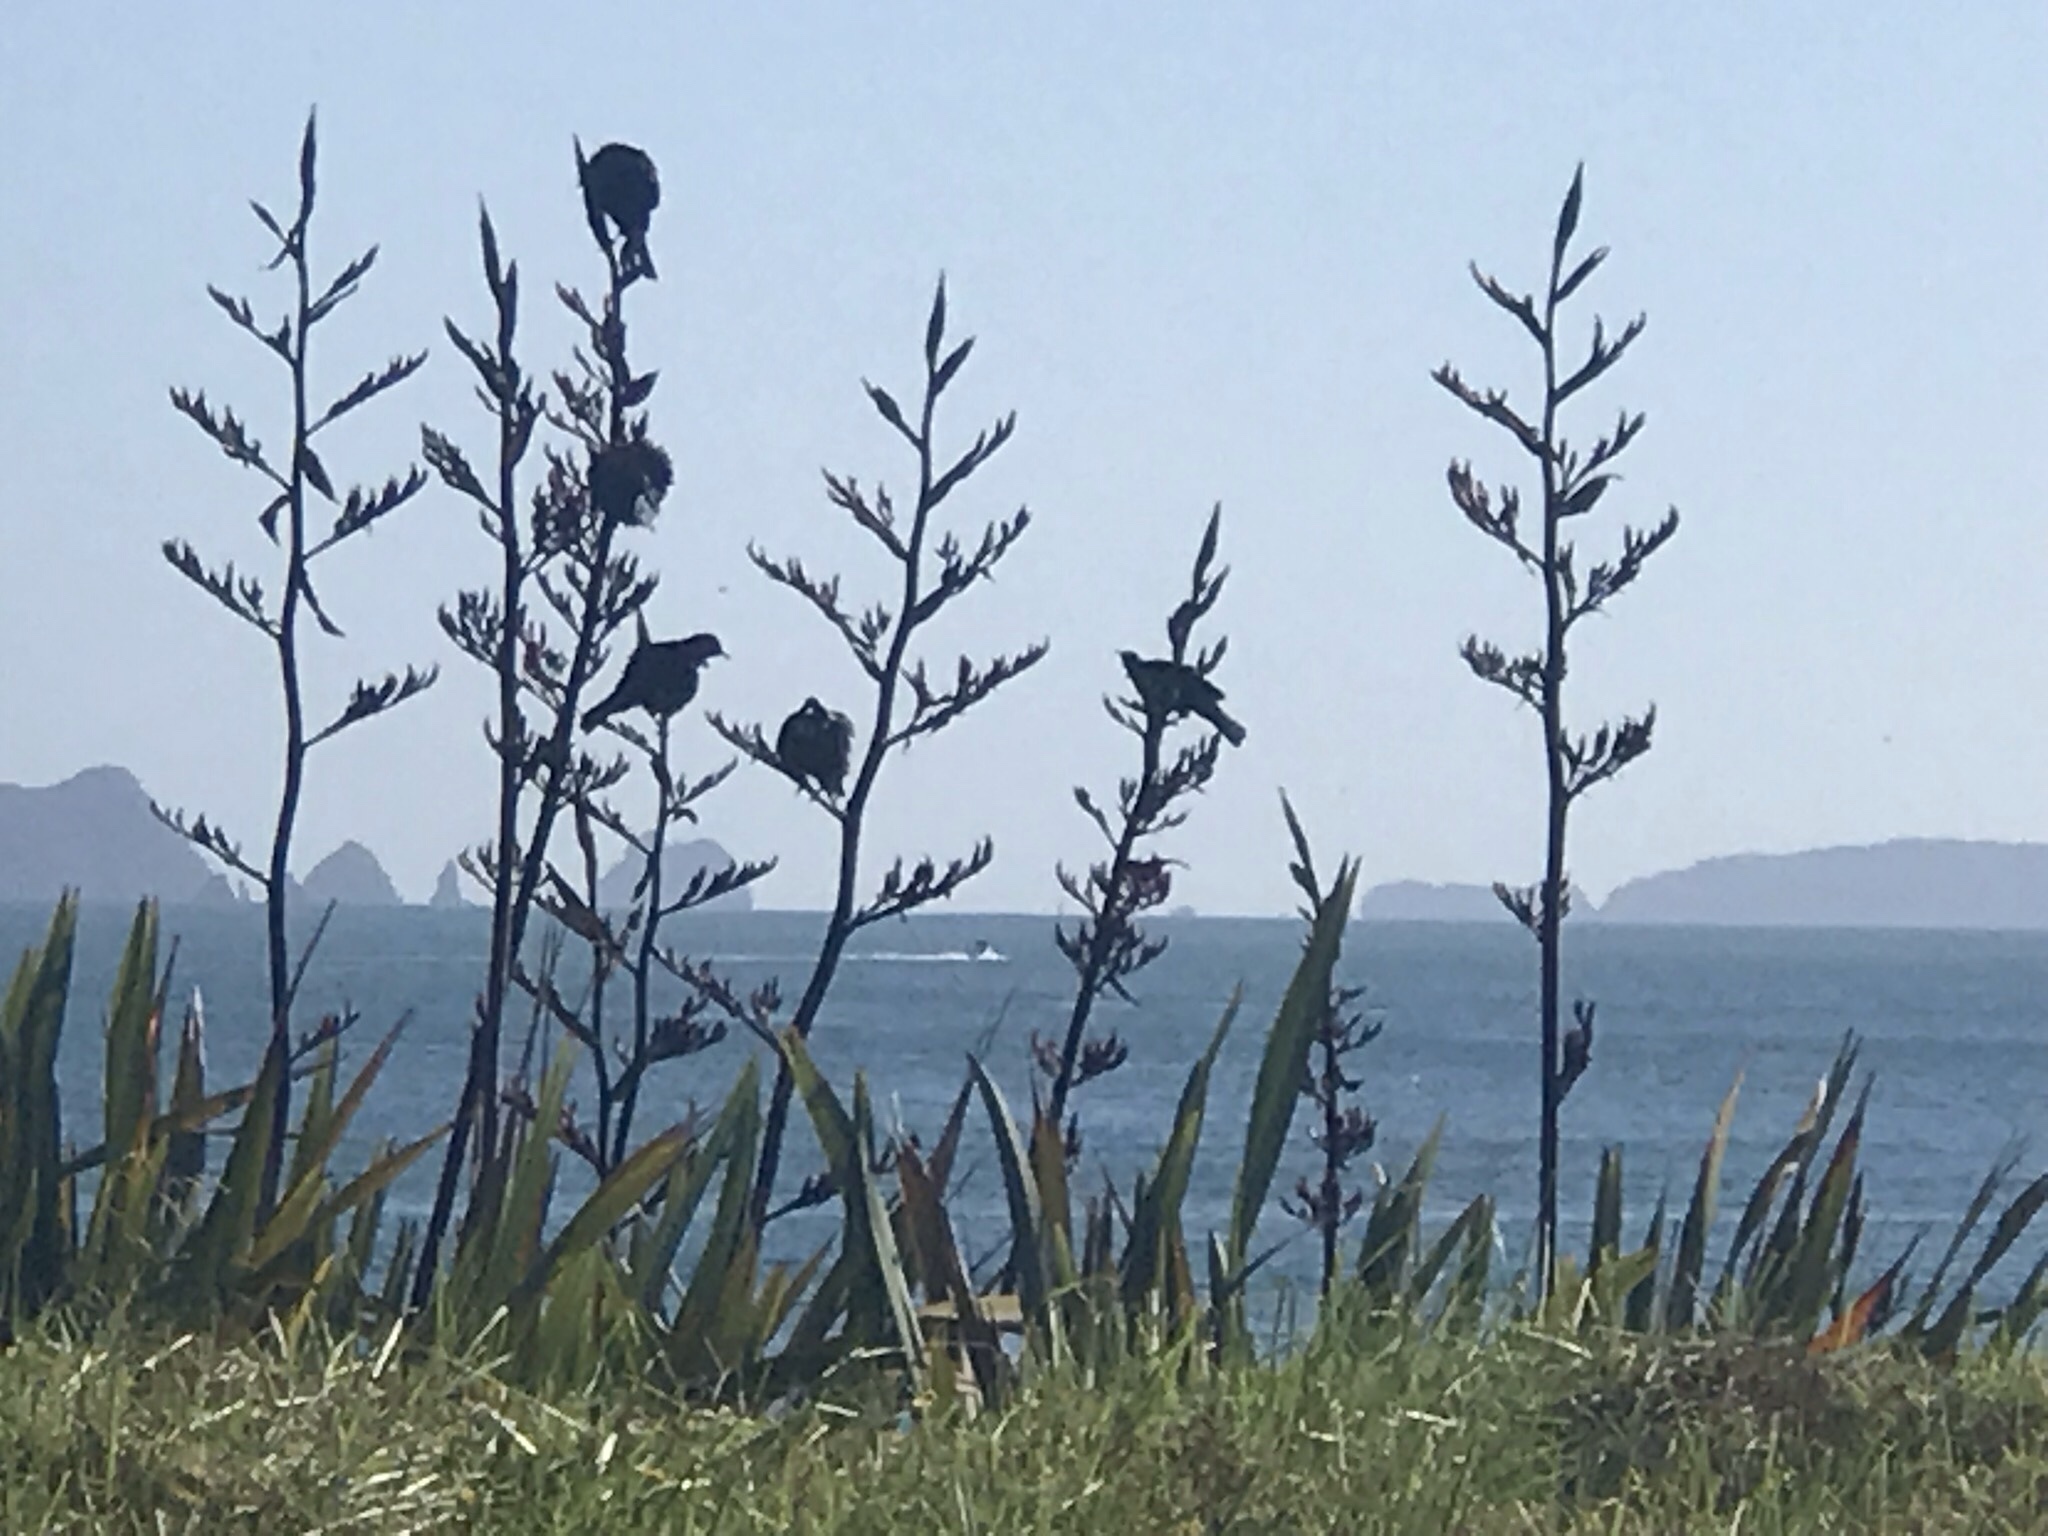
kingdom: Animalia
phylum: Chordata
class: Aves
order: Passeriformes
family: Meliphagidae
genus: Prosthemadera
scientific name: Prosthemadera novaeseelandiae
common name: Tui
